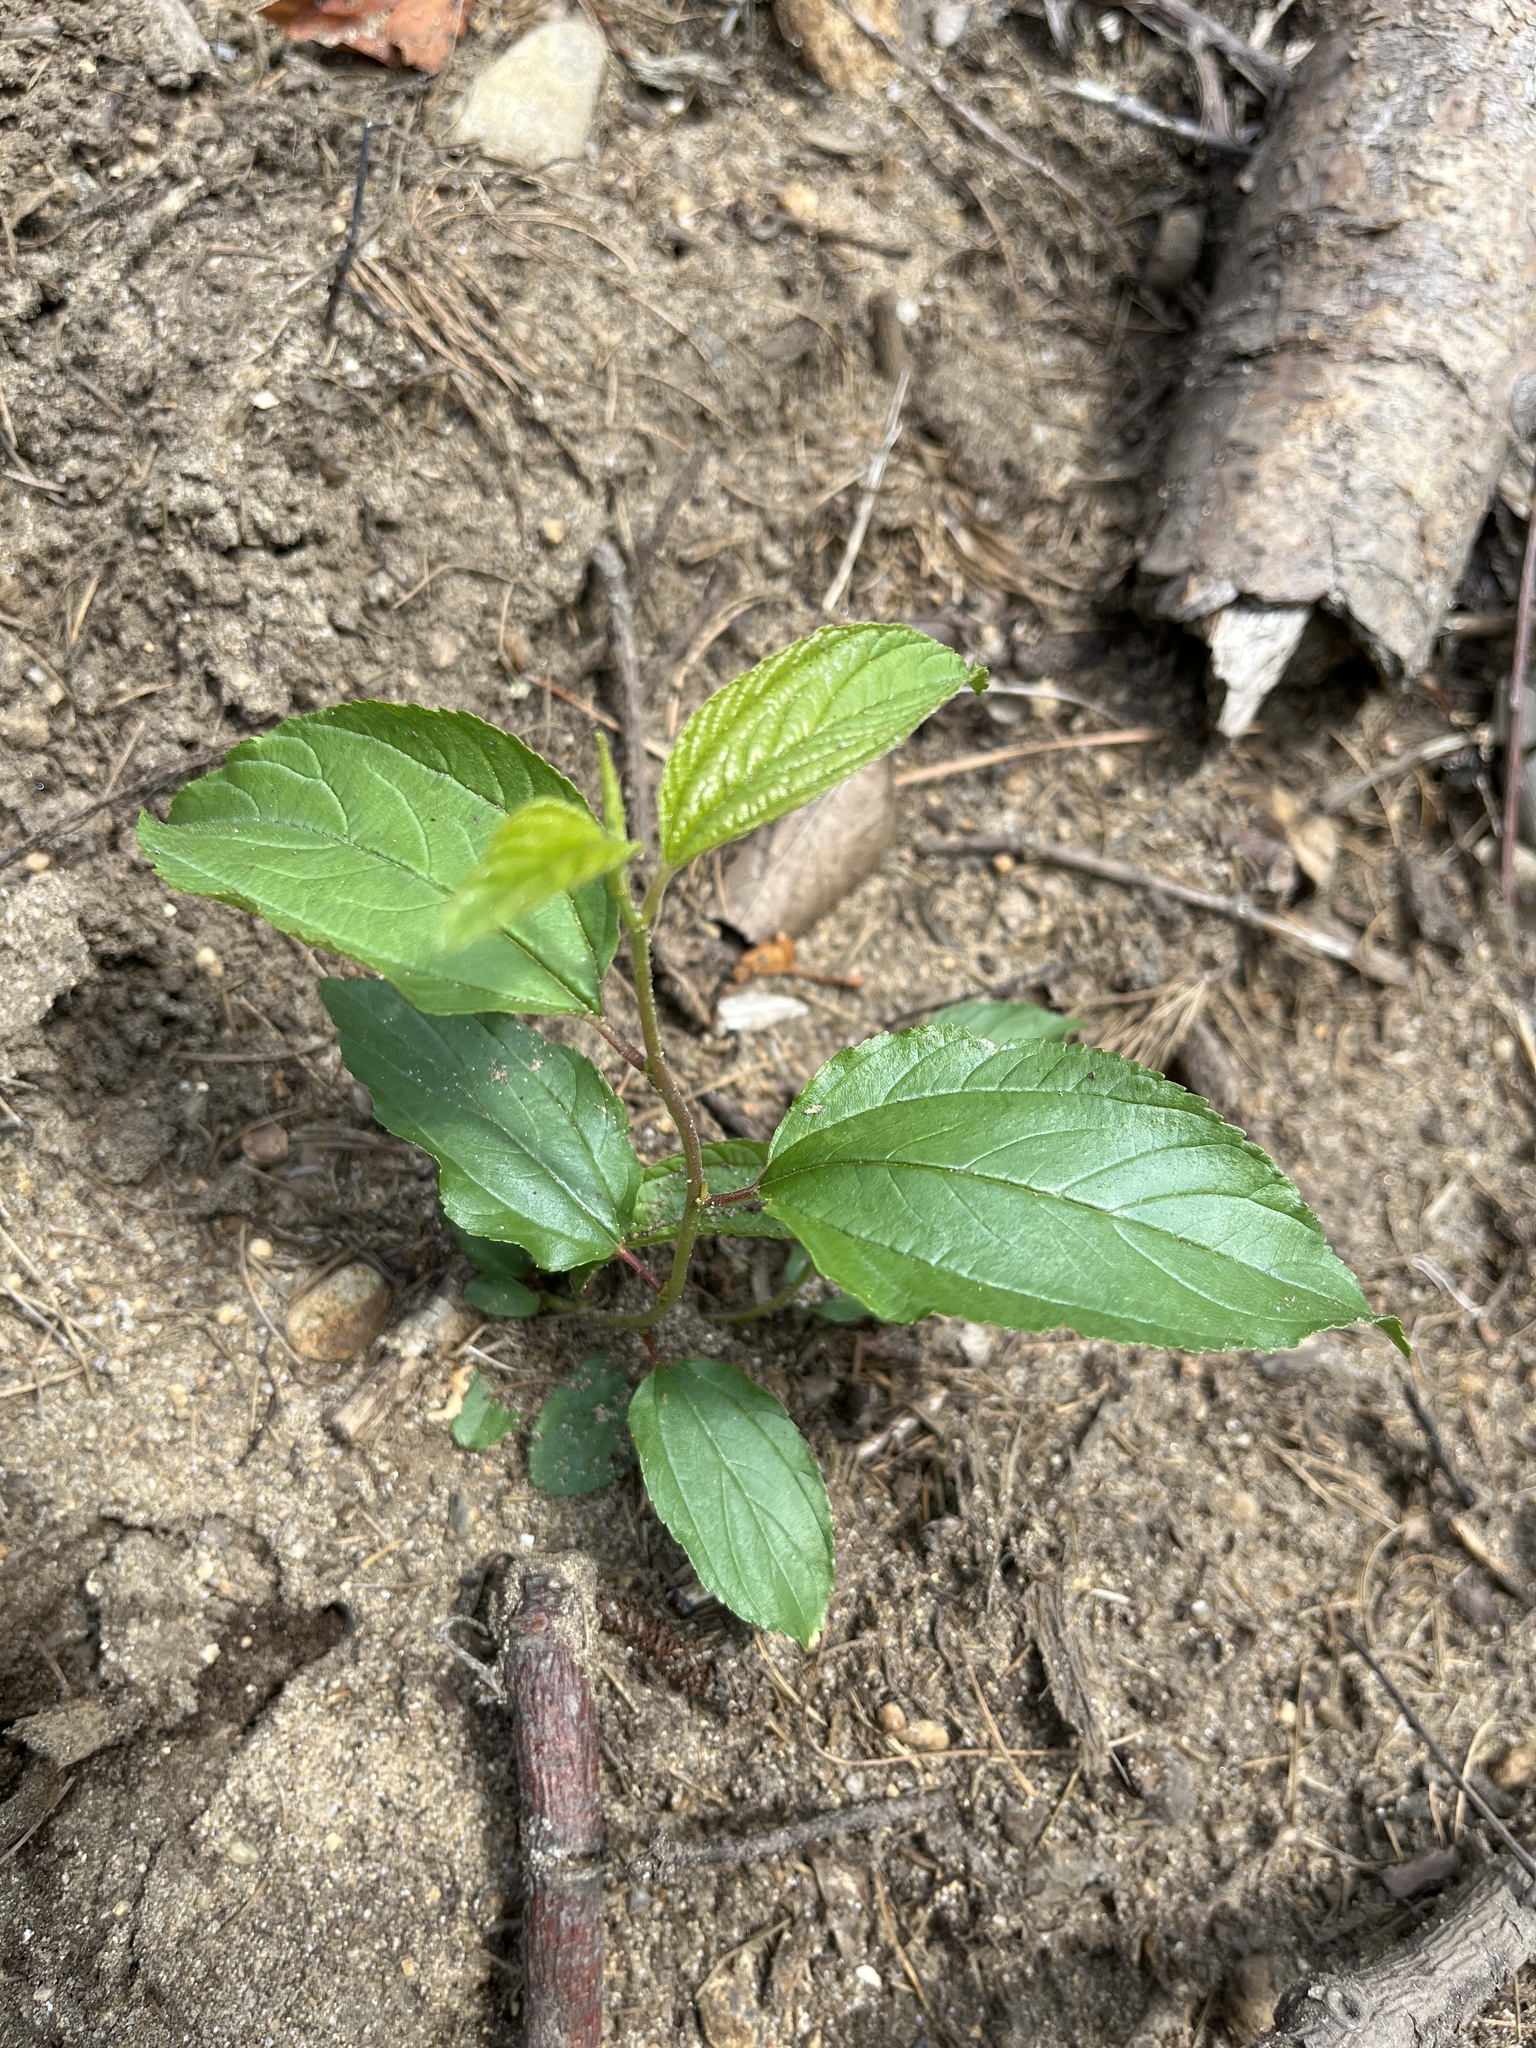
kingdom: Plantae
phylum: Tracheophyta
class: Magnoliopsida
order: Rosales
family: Rhamnaceae
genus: Ceanothus
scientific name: Ceanothus americanus
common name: Redroot
